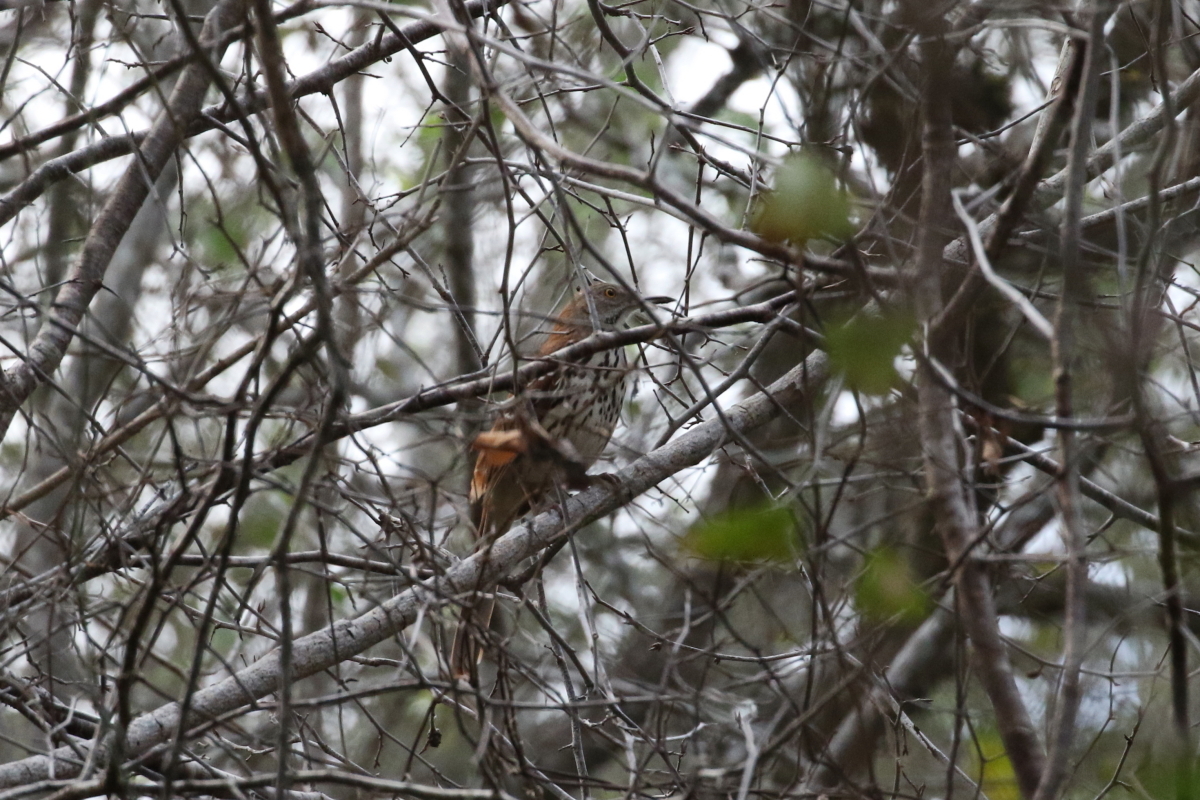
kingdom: Animalia
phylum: Chordata
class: Aves
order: Passeriformes
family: Mimidae
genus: Toxostoma
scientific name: Toxostoma rufum
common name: Brown thrasher
